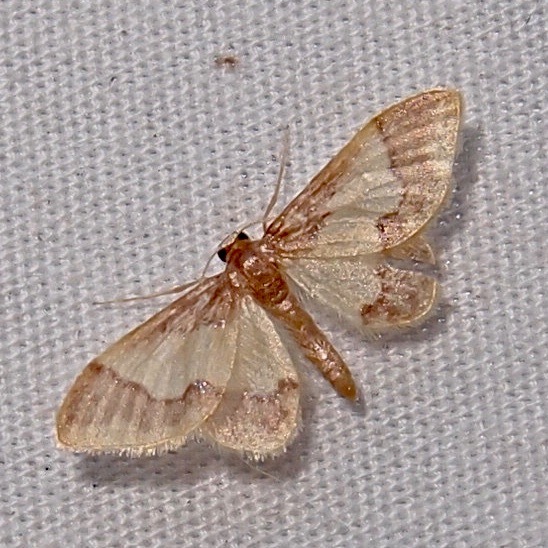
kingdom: Animalia
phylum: Arthropoda
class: Insecta
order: Lepidoptera
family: Geometridae
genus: Idaea
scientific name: Idaea basinta
